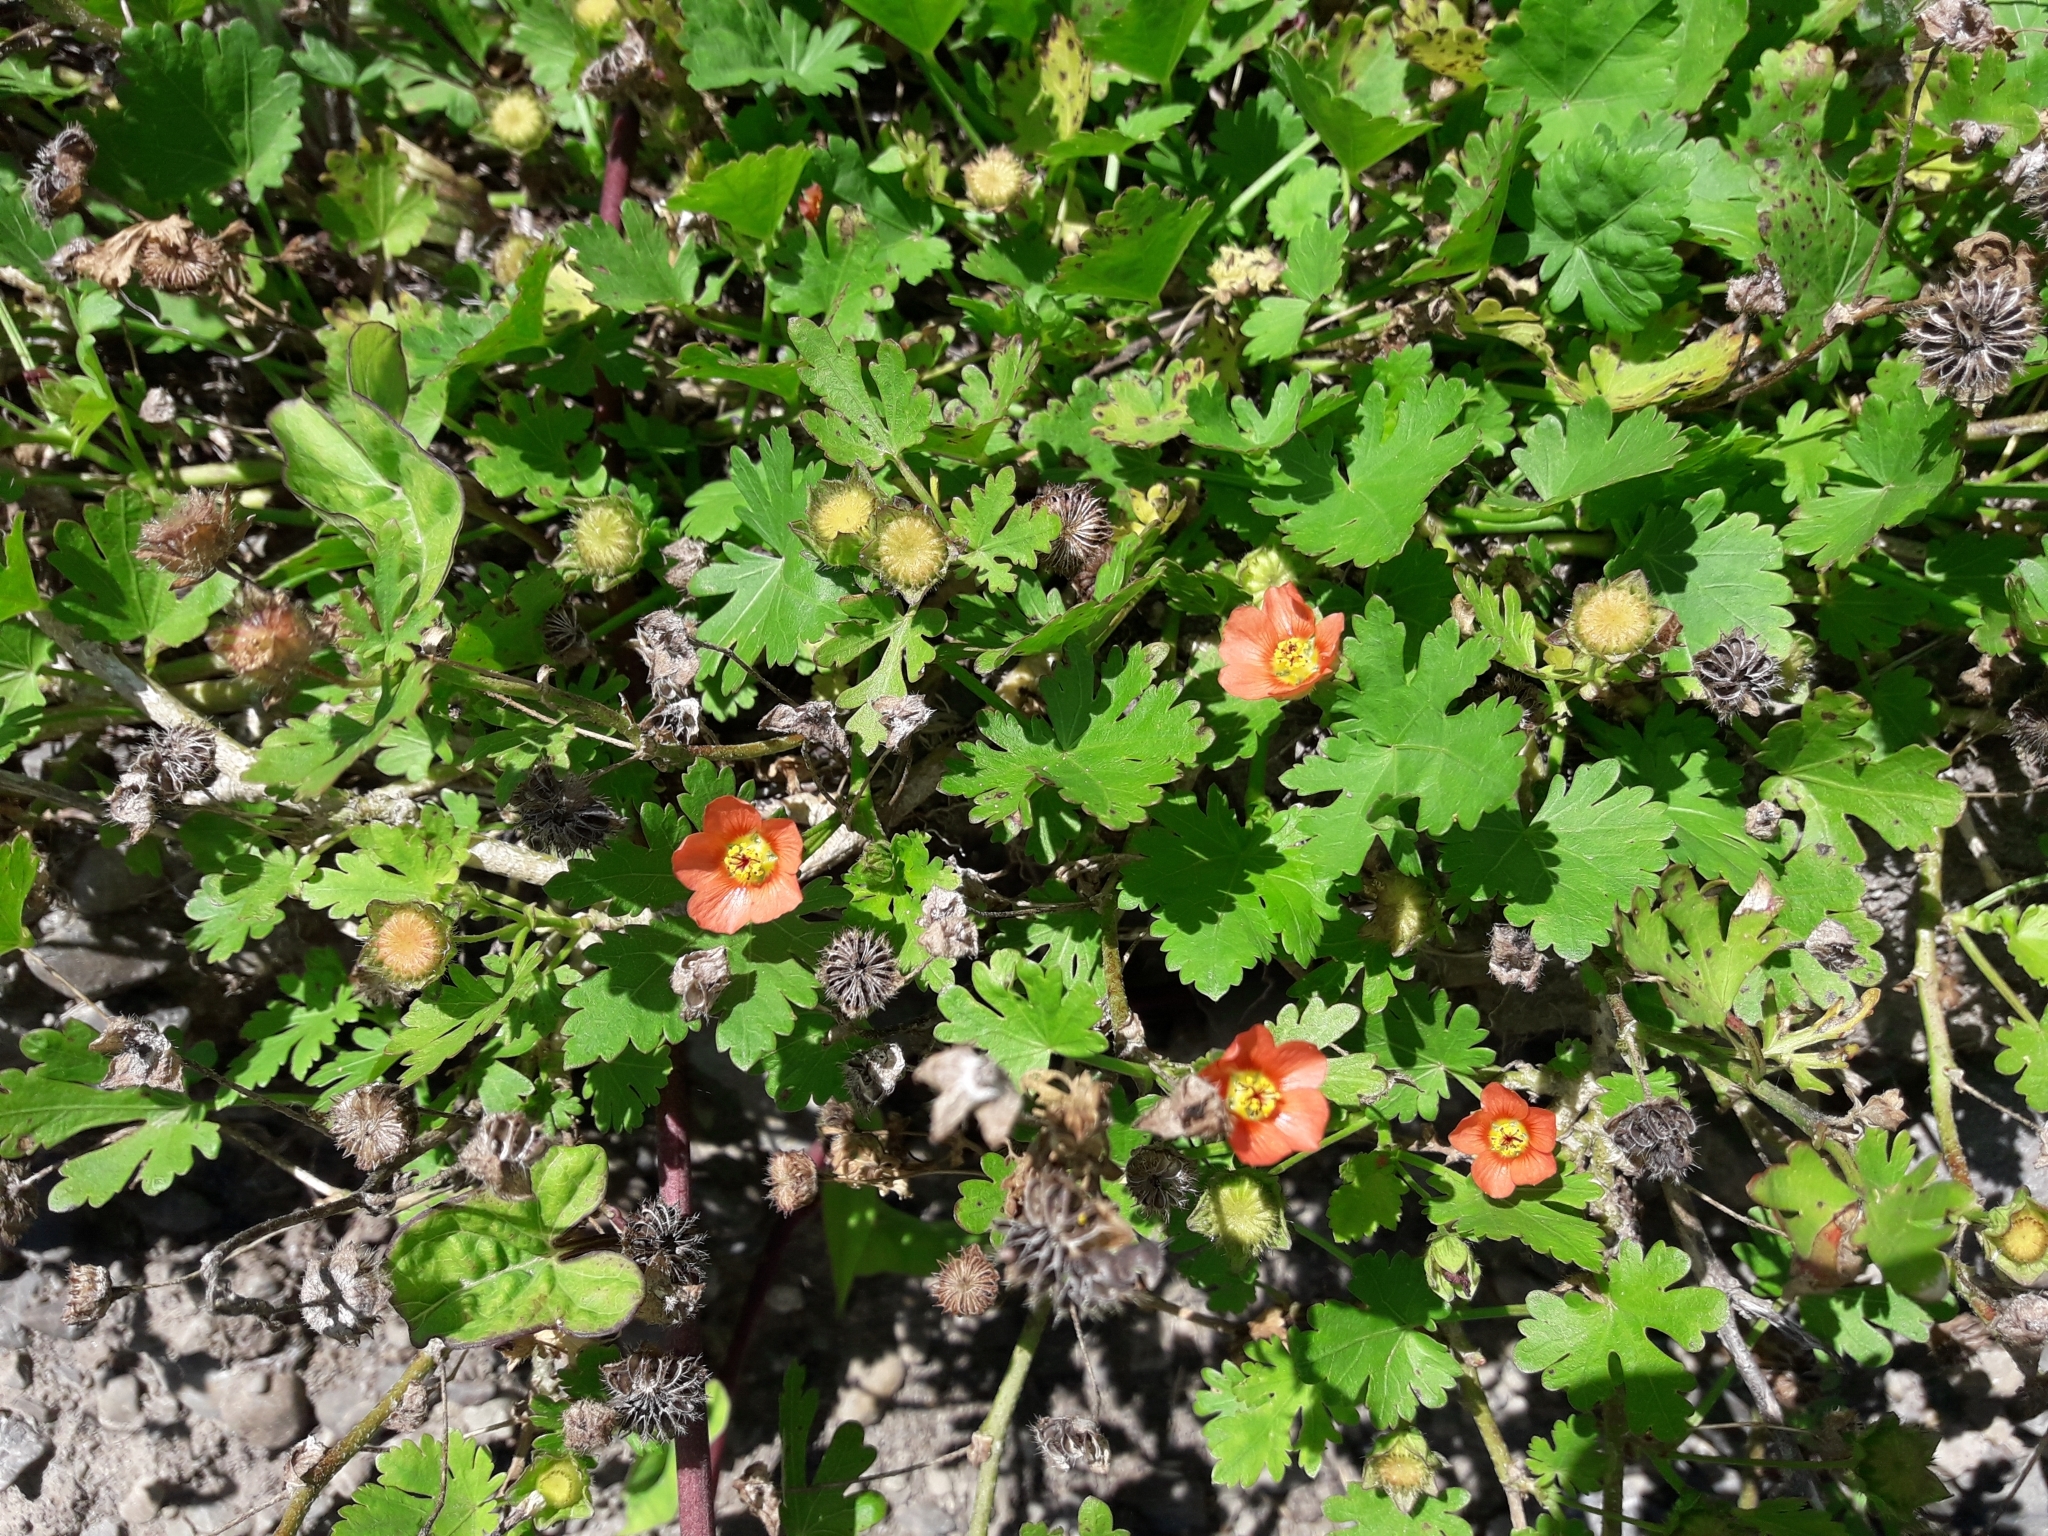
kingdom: Plantae
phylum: Tracheophyta
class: Magnoliopsida
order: Malvales
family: Malvaceae
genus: Modiola
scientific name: Modiola caroliniana
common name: Carolina bristlemallow
